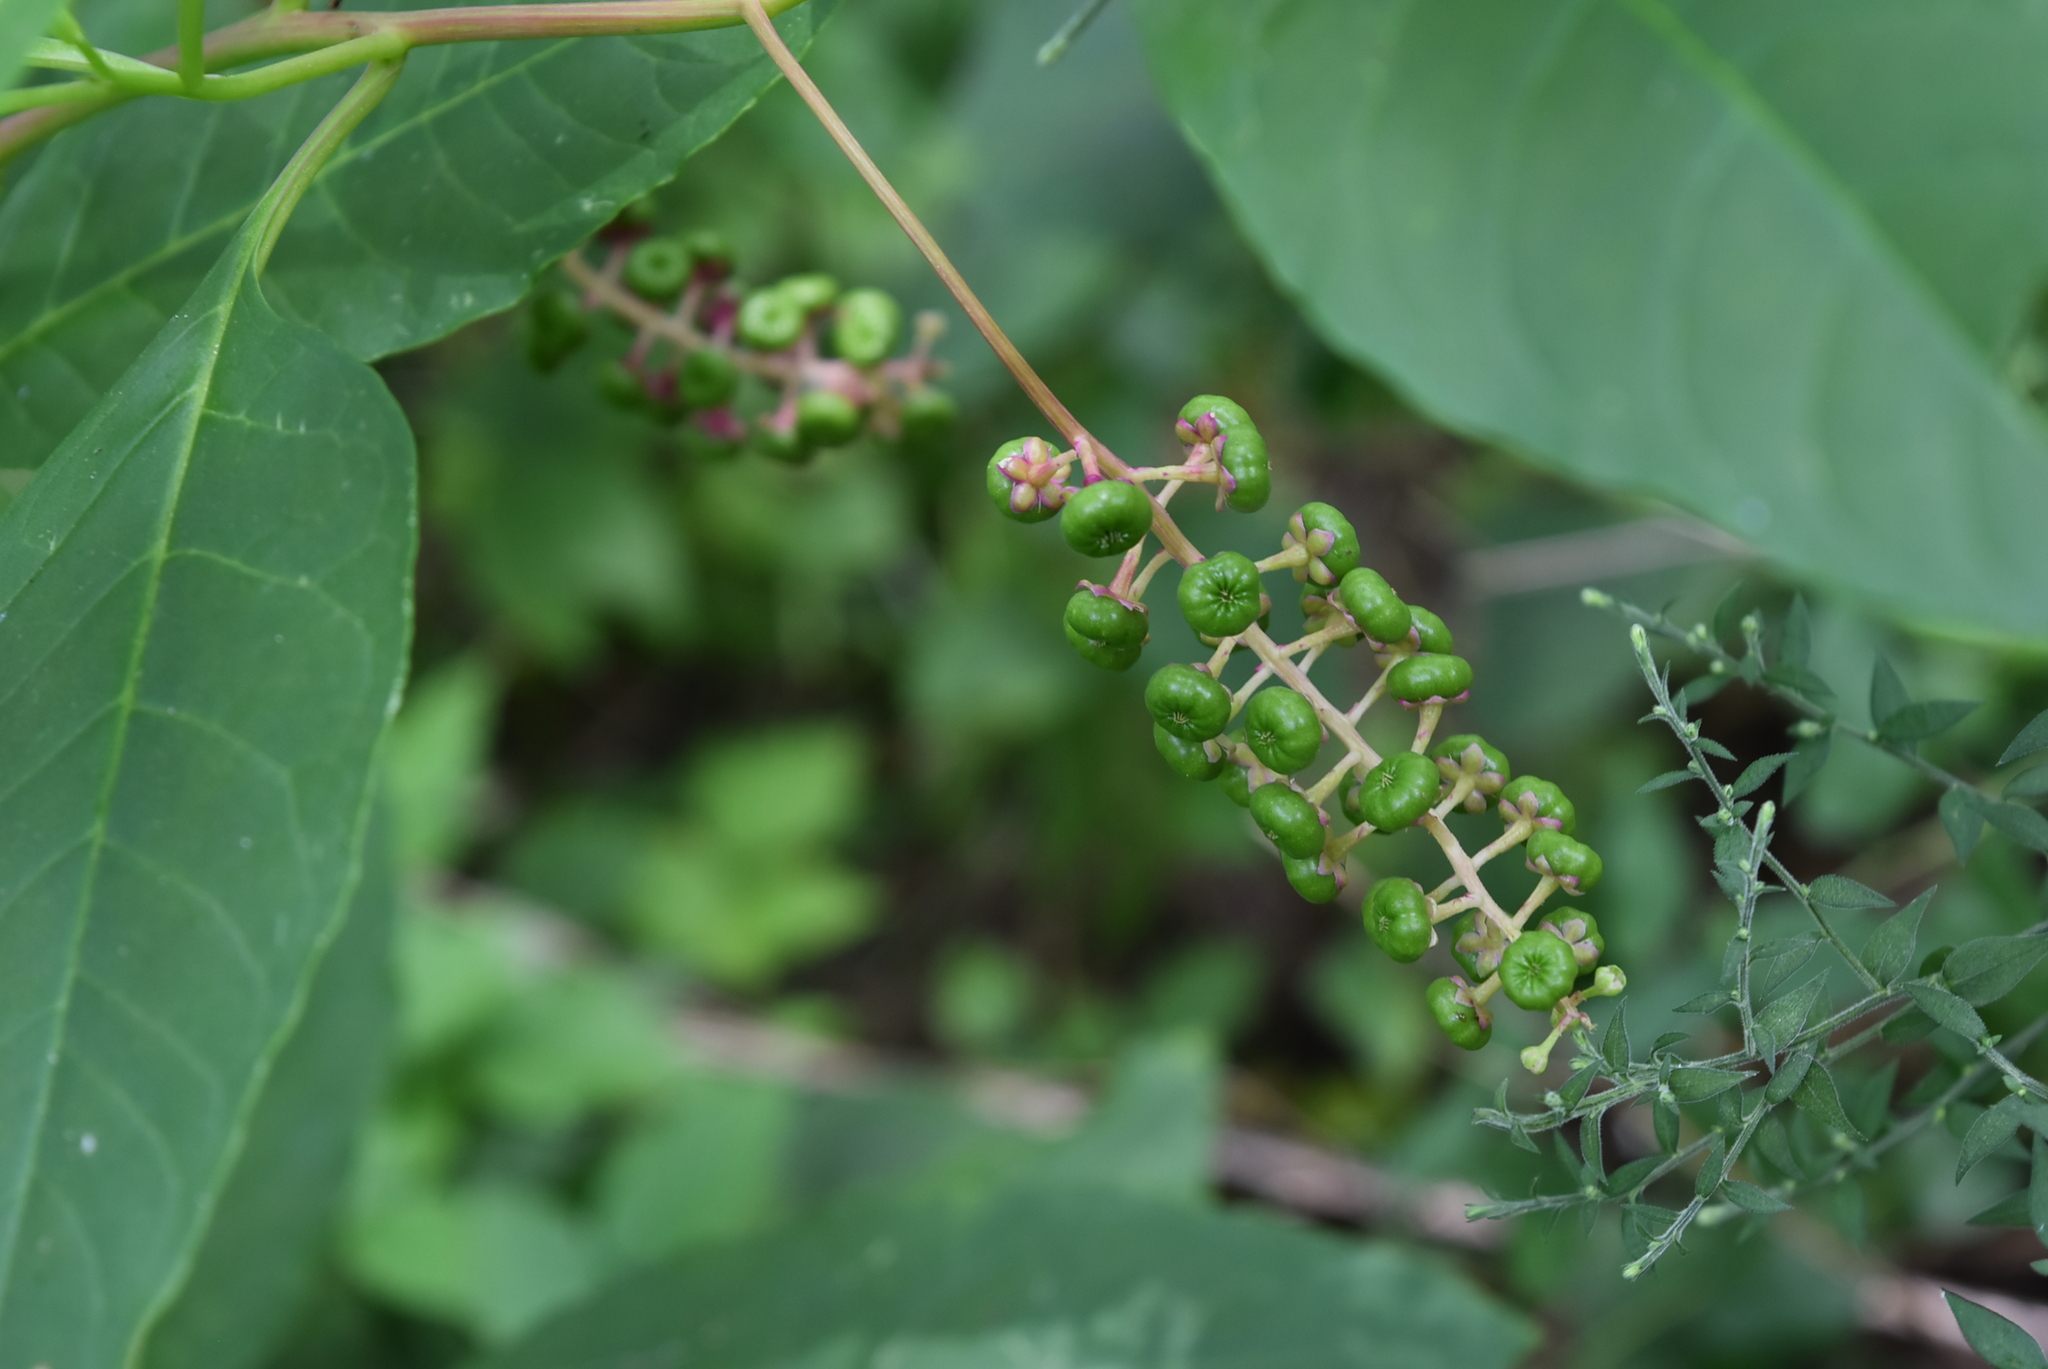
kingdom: Plantae
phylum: Tracheophyta
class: Magnoliopsida
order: Caryophyllales
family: Phytolaccaceae
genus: Phytolacca
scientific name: Phytolacca americana
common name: American pokeweed
